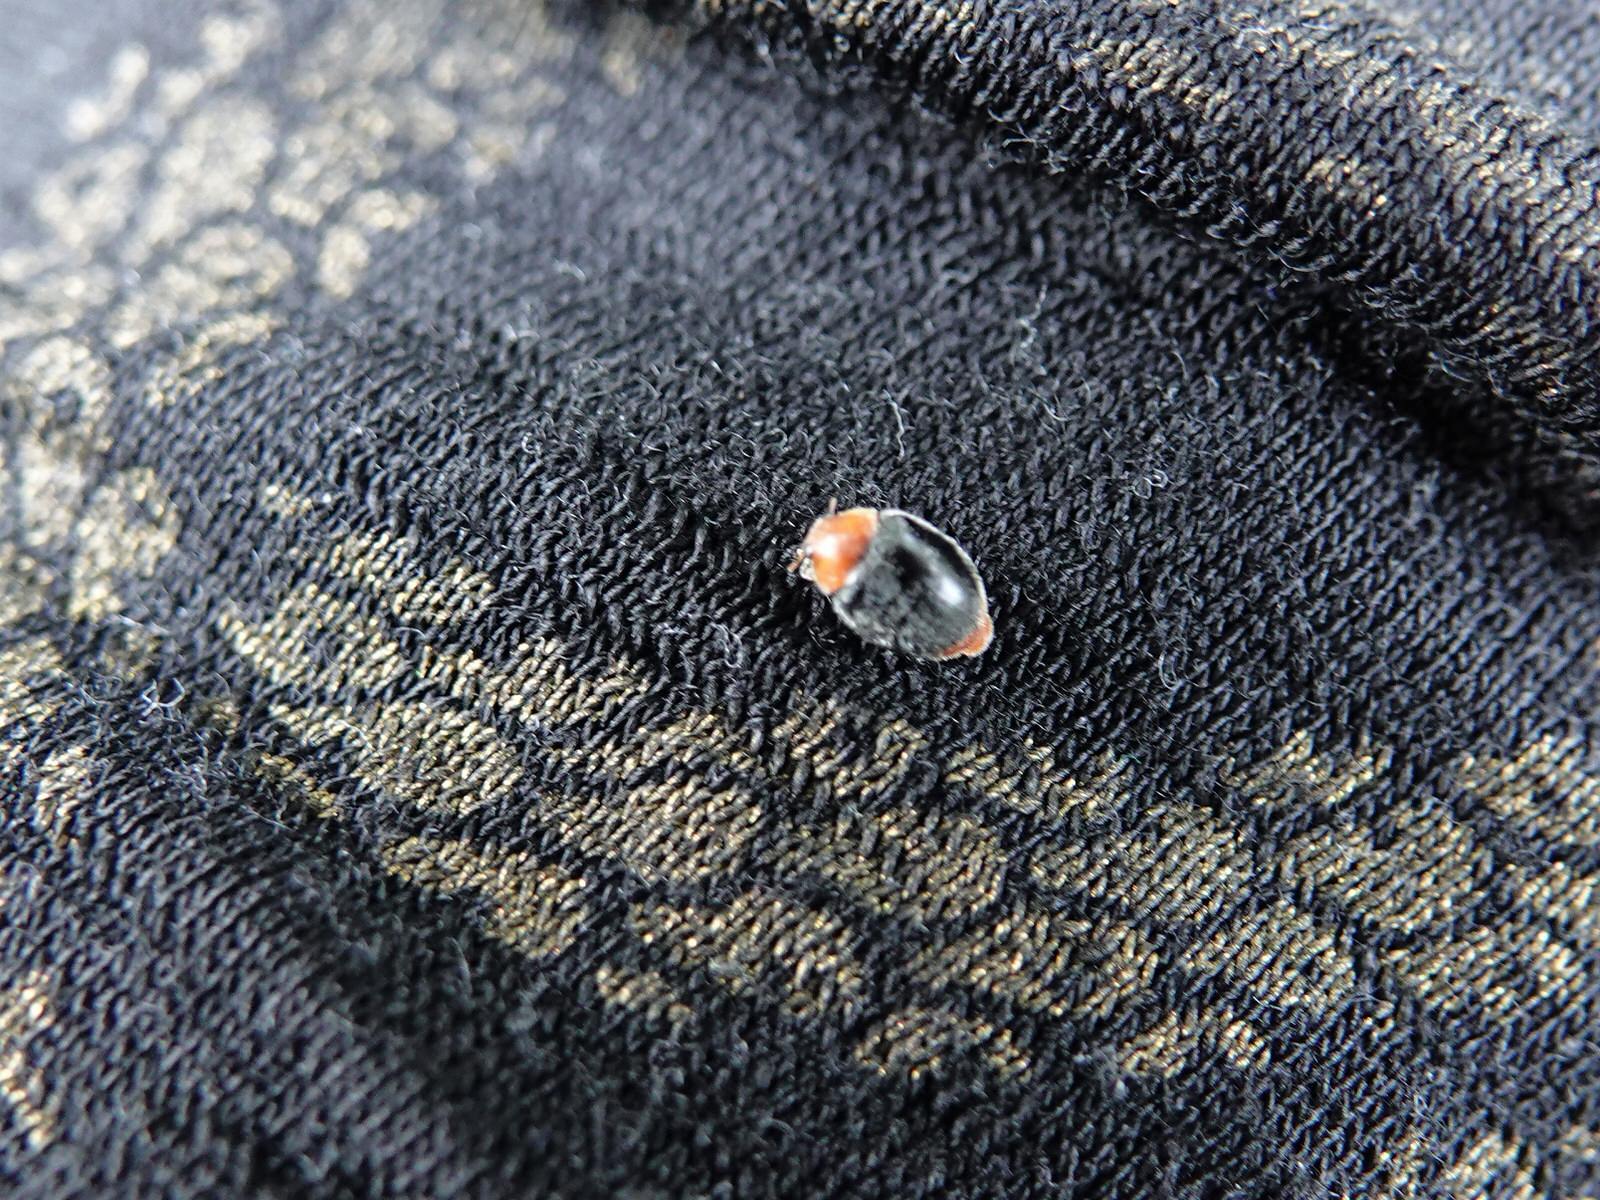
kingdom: Animalia
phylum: Arthropoda
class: Insecta
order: Coleoptera
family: Coccinellidae
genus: Cryptolaemus
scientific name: Cryptolaemus montrouzieri
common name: Mealybug destroyer
